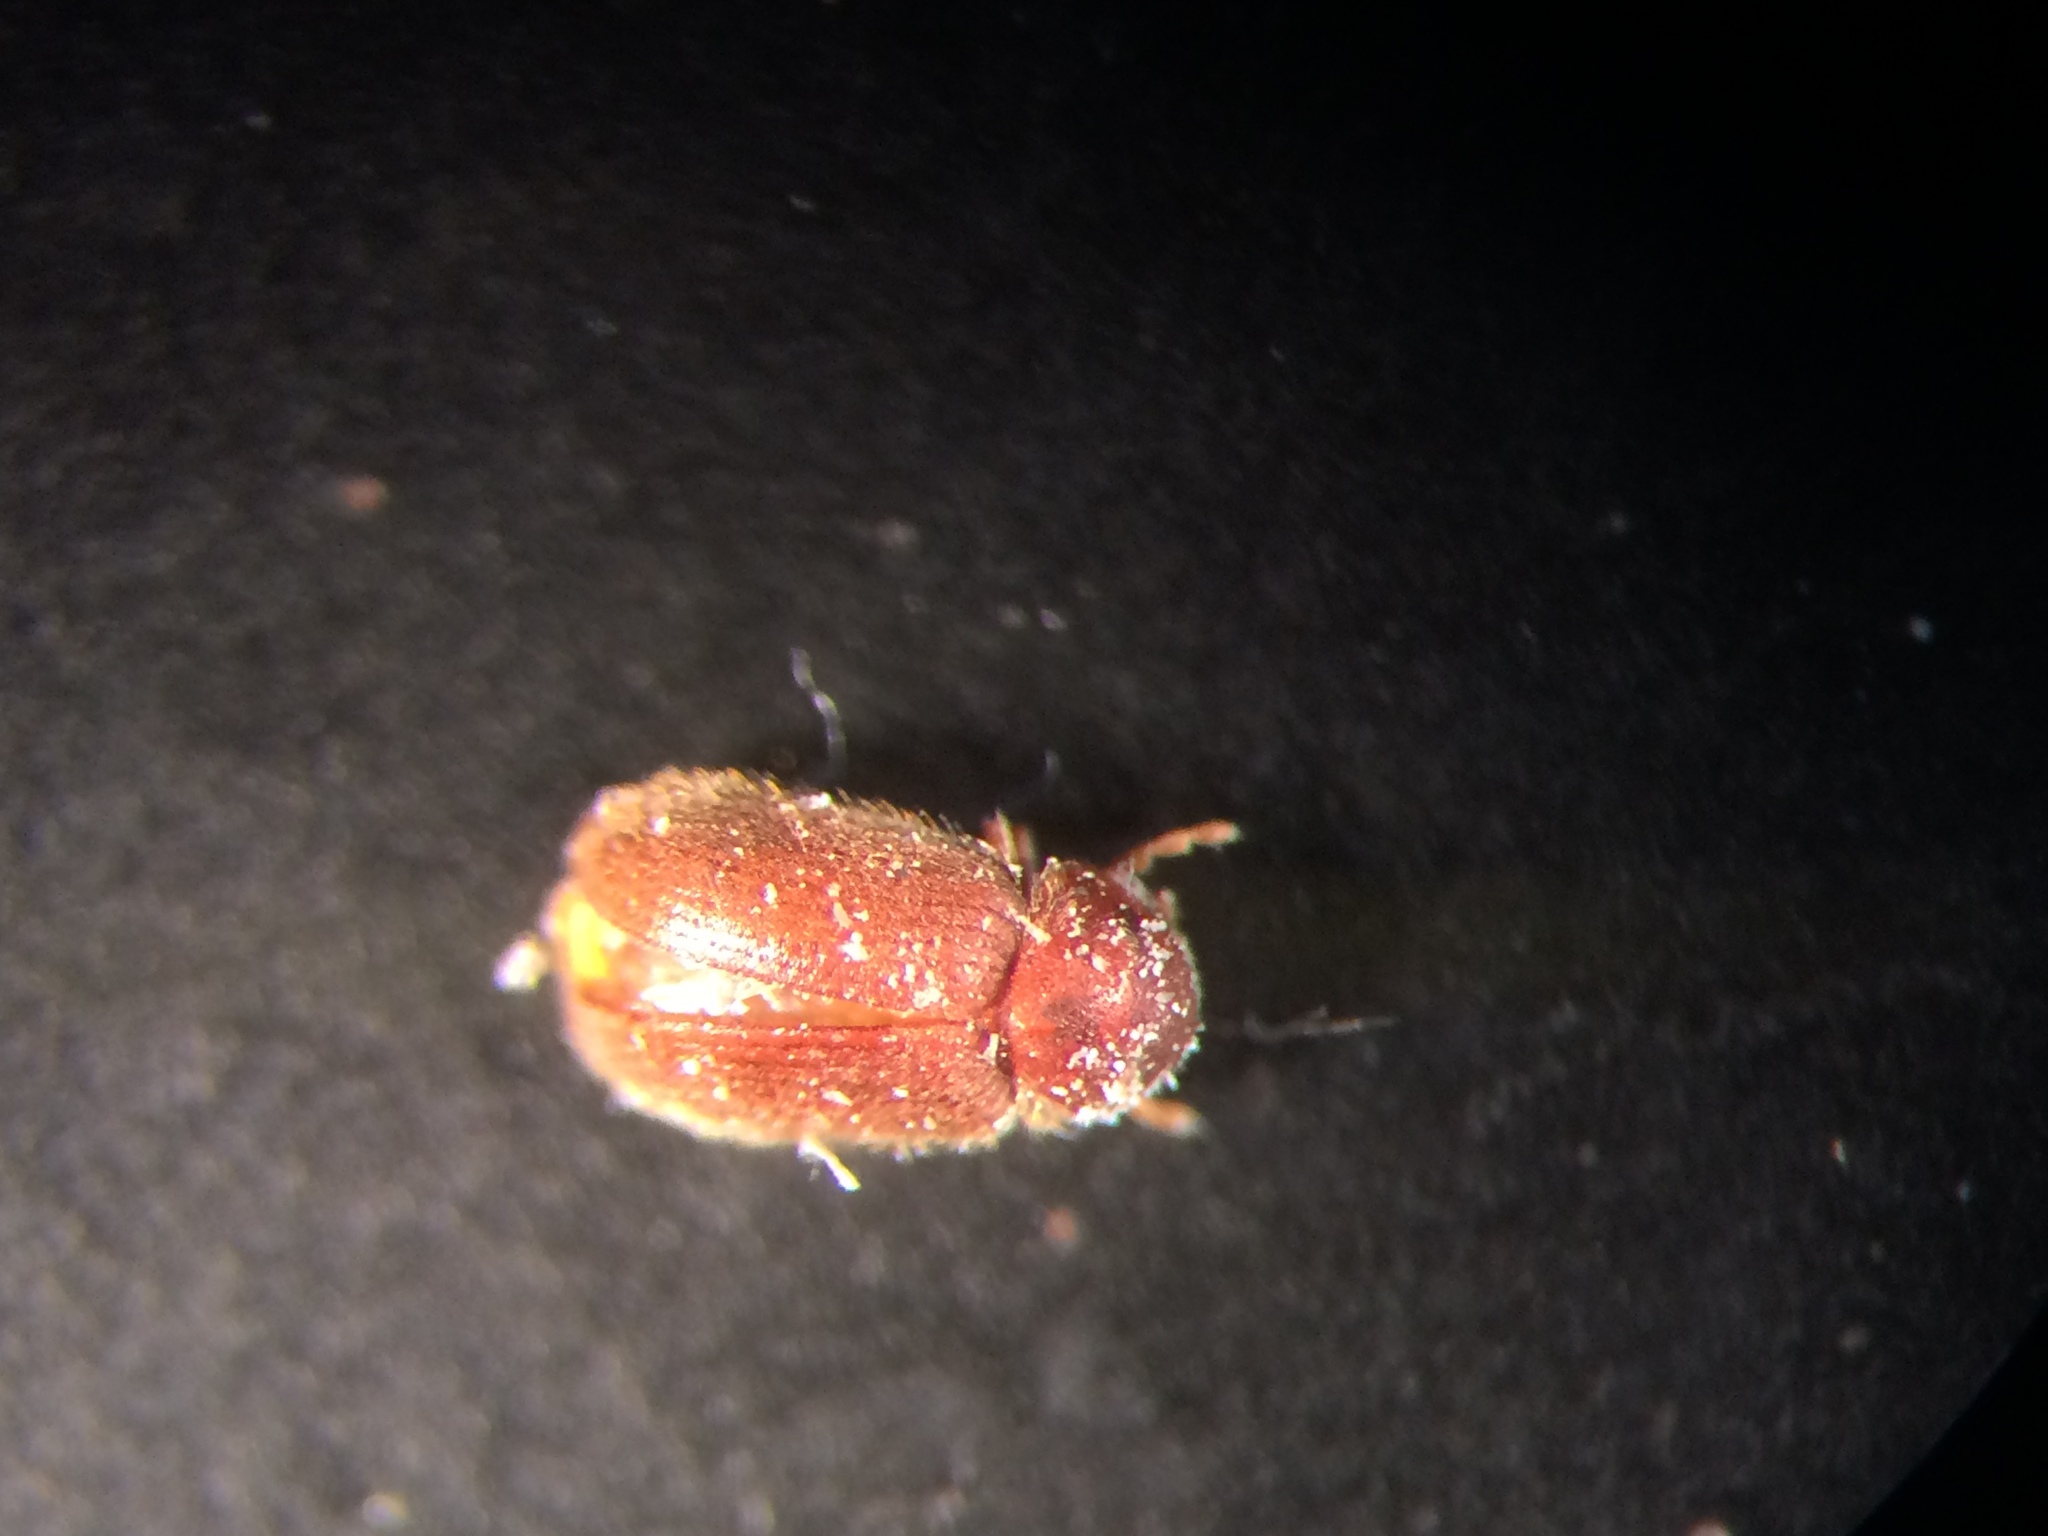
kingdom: Animalia
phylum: Arthropoda
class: Insecta
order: Coleoptera
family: Anobiidae
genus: Stegobium
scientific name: Stegobium paniceum
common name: Drugstore beetle
